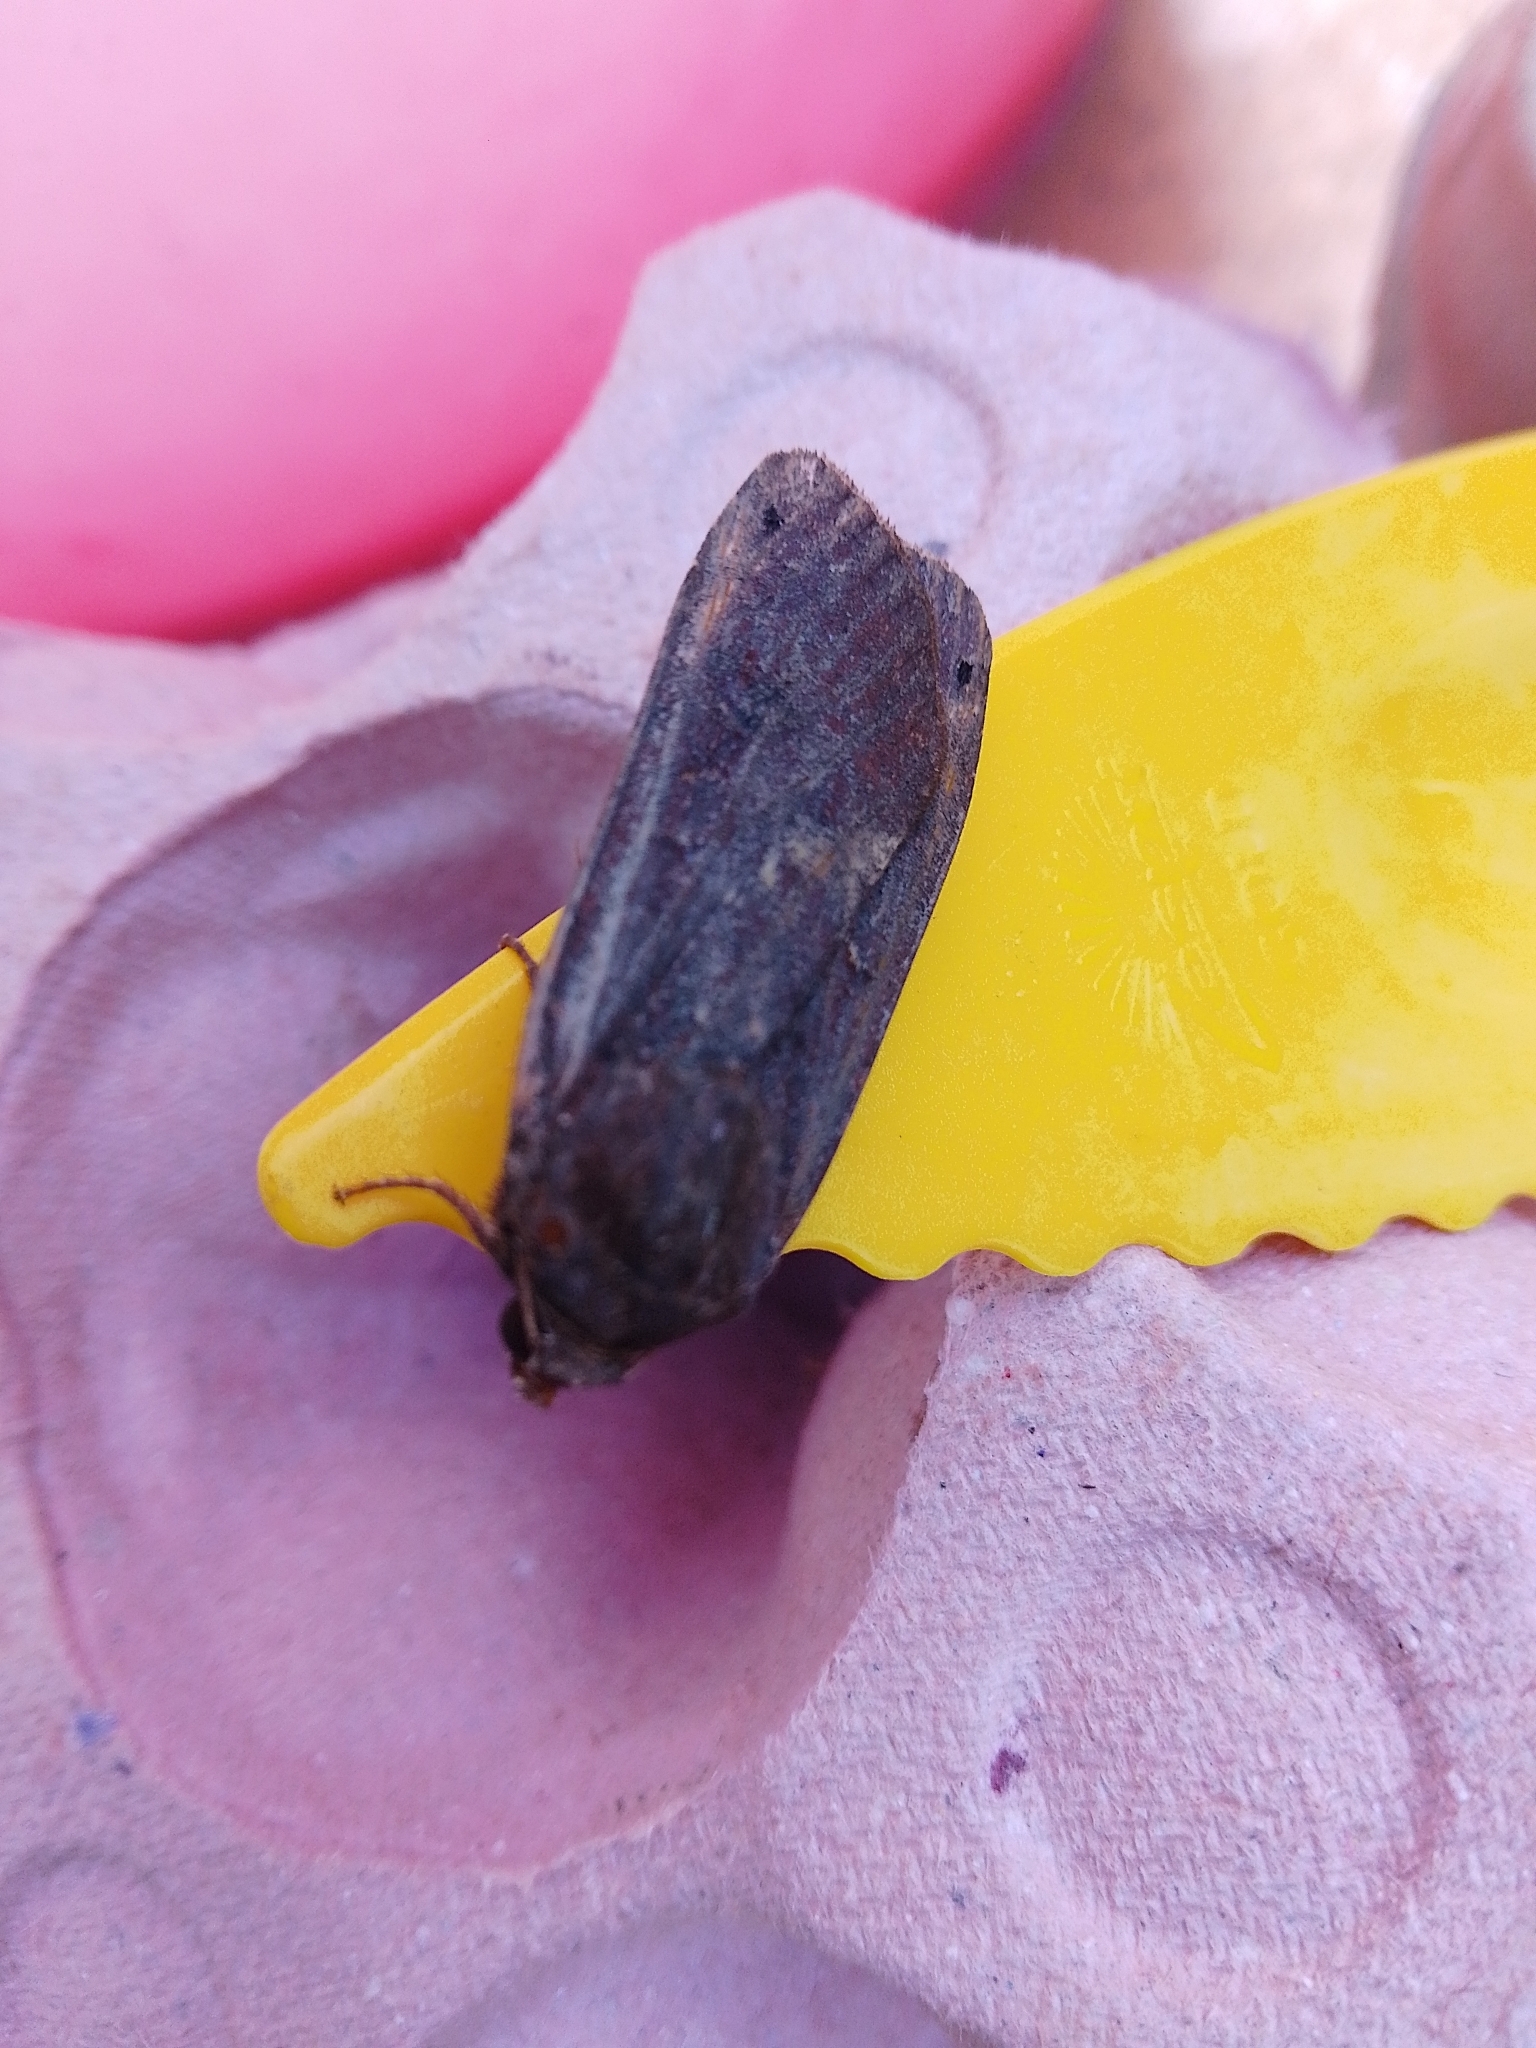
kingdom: Animalia
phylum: Arthropoda
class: Insecta
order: Lepidoptera
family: Noctuidae
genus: Noctua
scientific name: Noctua pronuba
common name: Large yellow underwing
